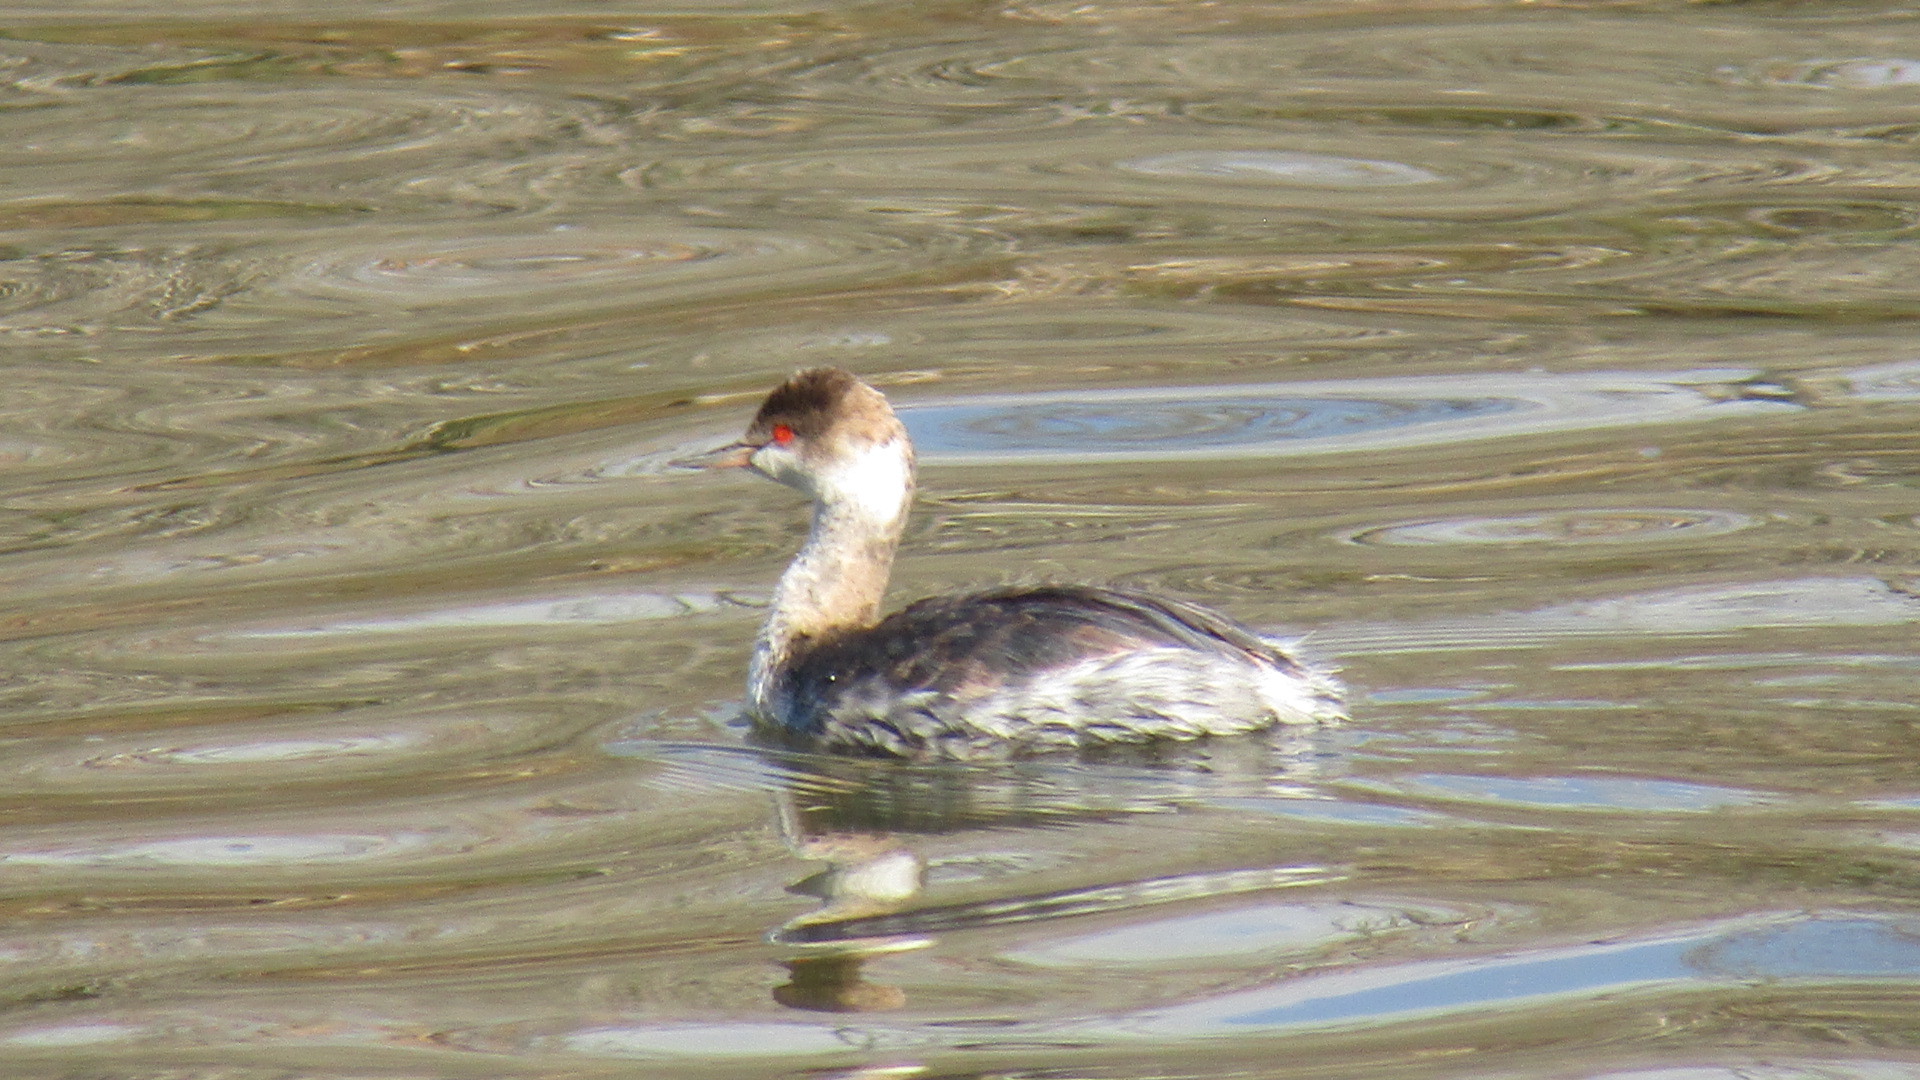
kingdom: Animalia
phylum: Chordata
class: Aves
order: Podicipediformes
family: Podicipedidae
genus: Podiceps
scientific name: Podiceps auritus
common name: Horned grebe
